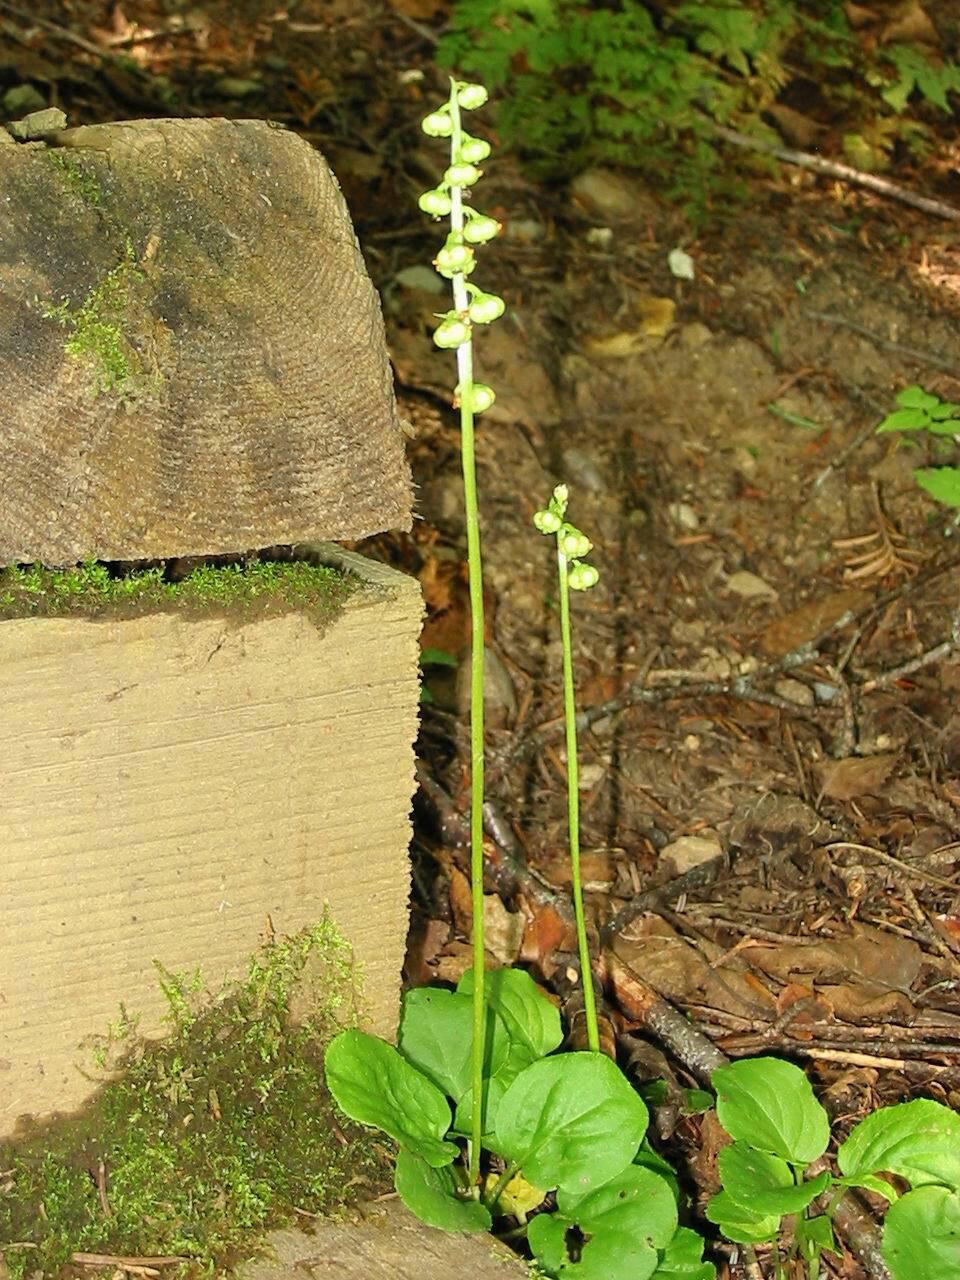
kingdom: Plantae
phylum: Tracheophyta
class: Magnoliopsida
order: Ericales
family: Ericaceae
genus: Pyrola
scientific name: Pyrola minor
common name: Common wintergreen
